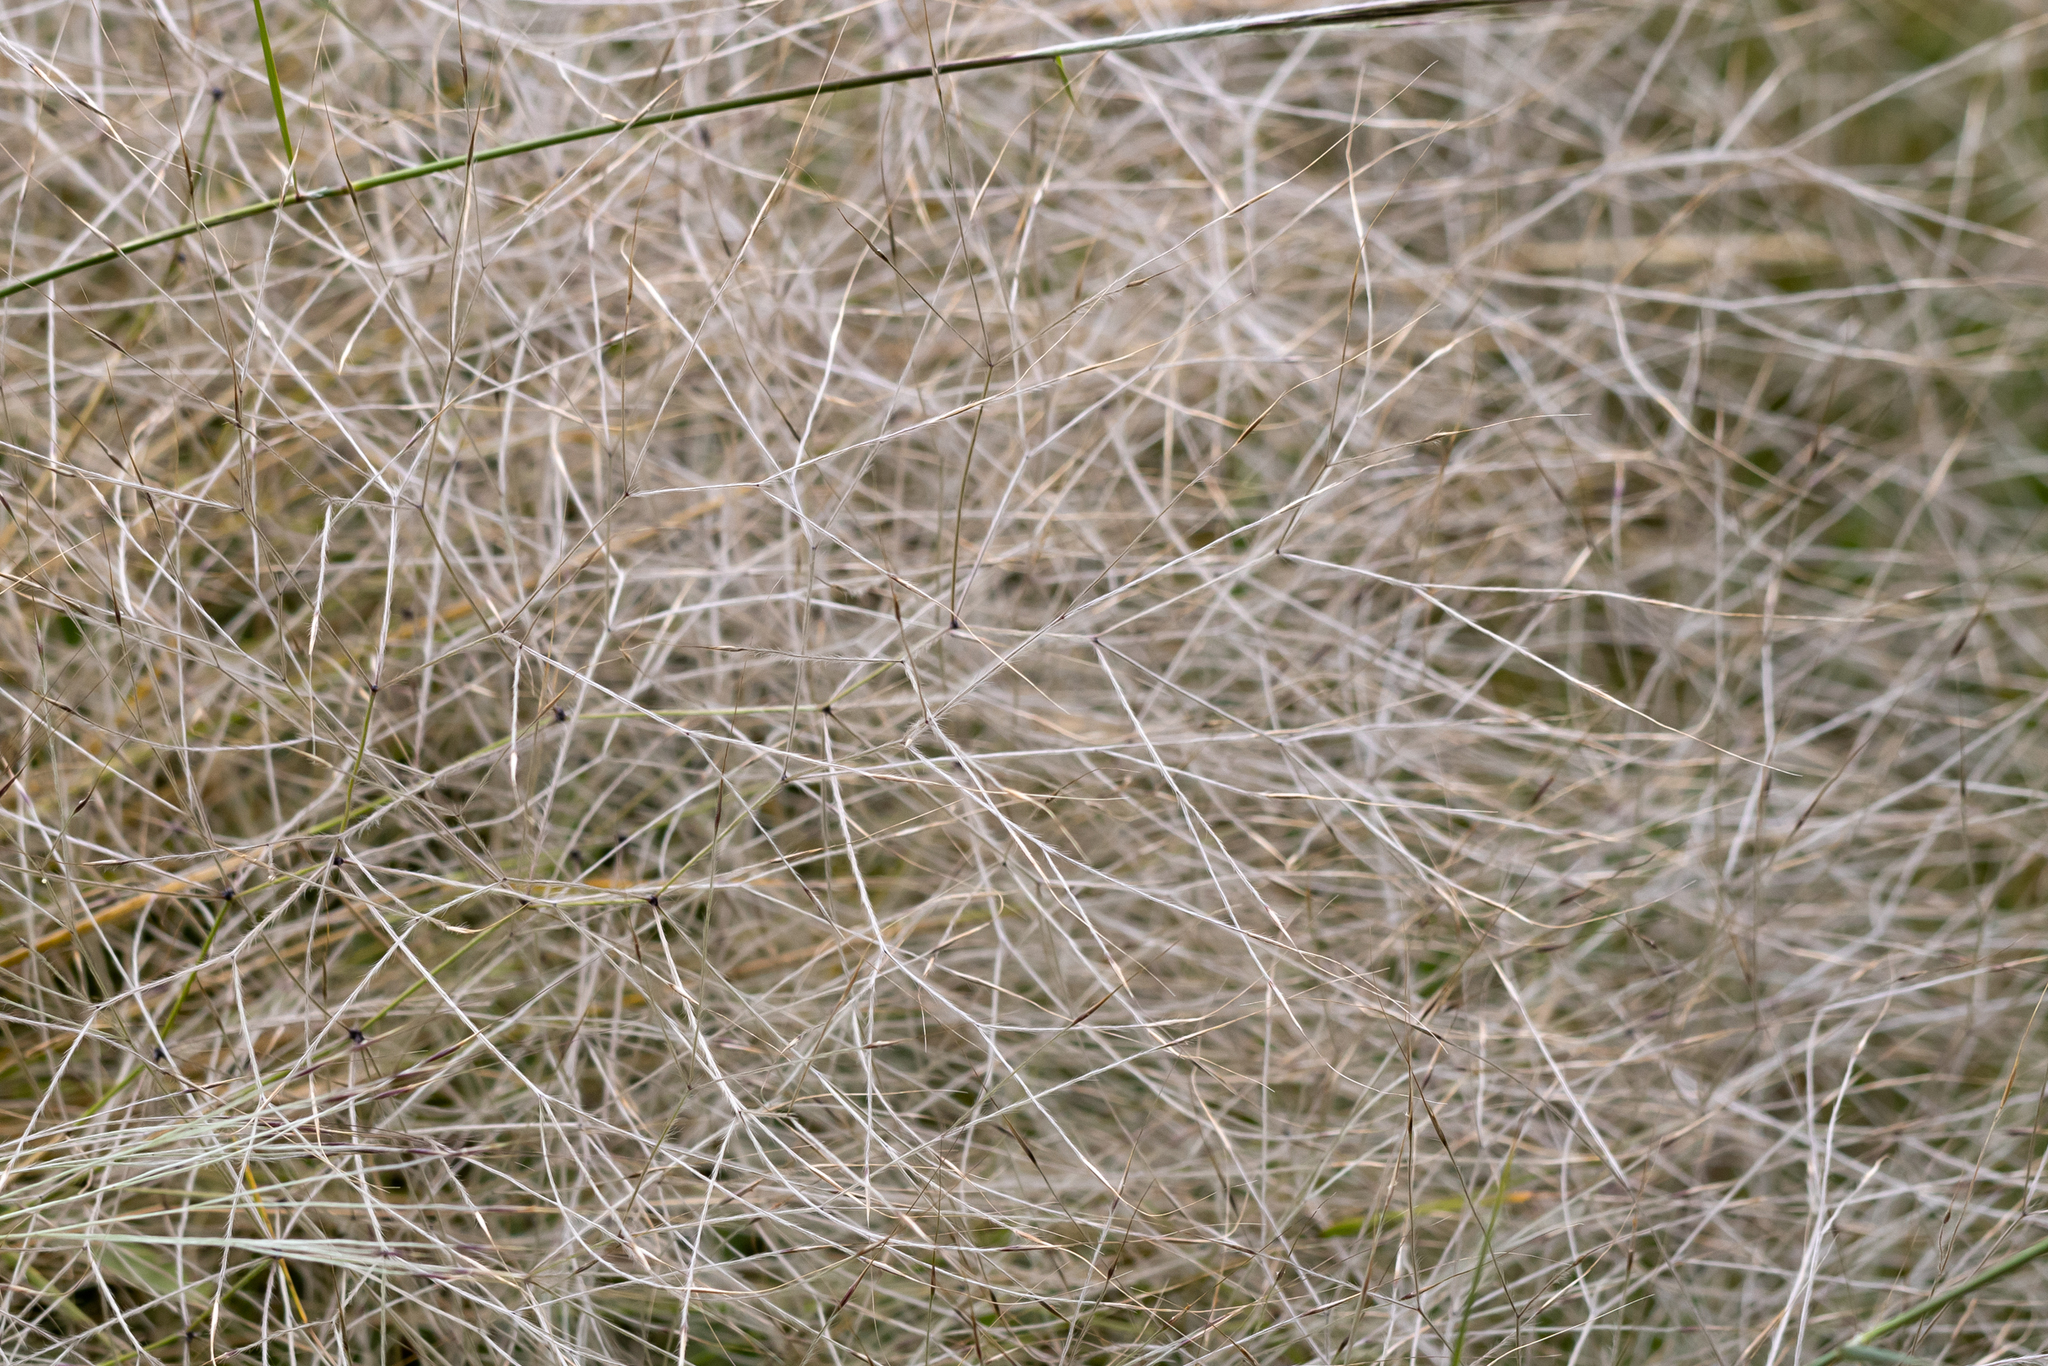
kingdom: Plantae
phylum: Tracheophyta
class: Liliopsida
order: Poales
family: Poaceae
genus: Austrostipa
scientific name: Austrostipa elegantissima
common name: Feather spear grass
